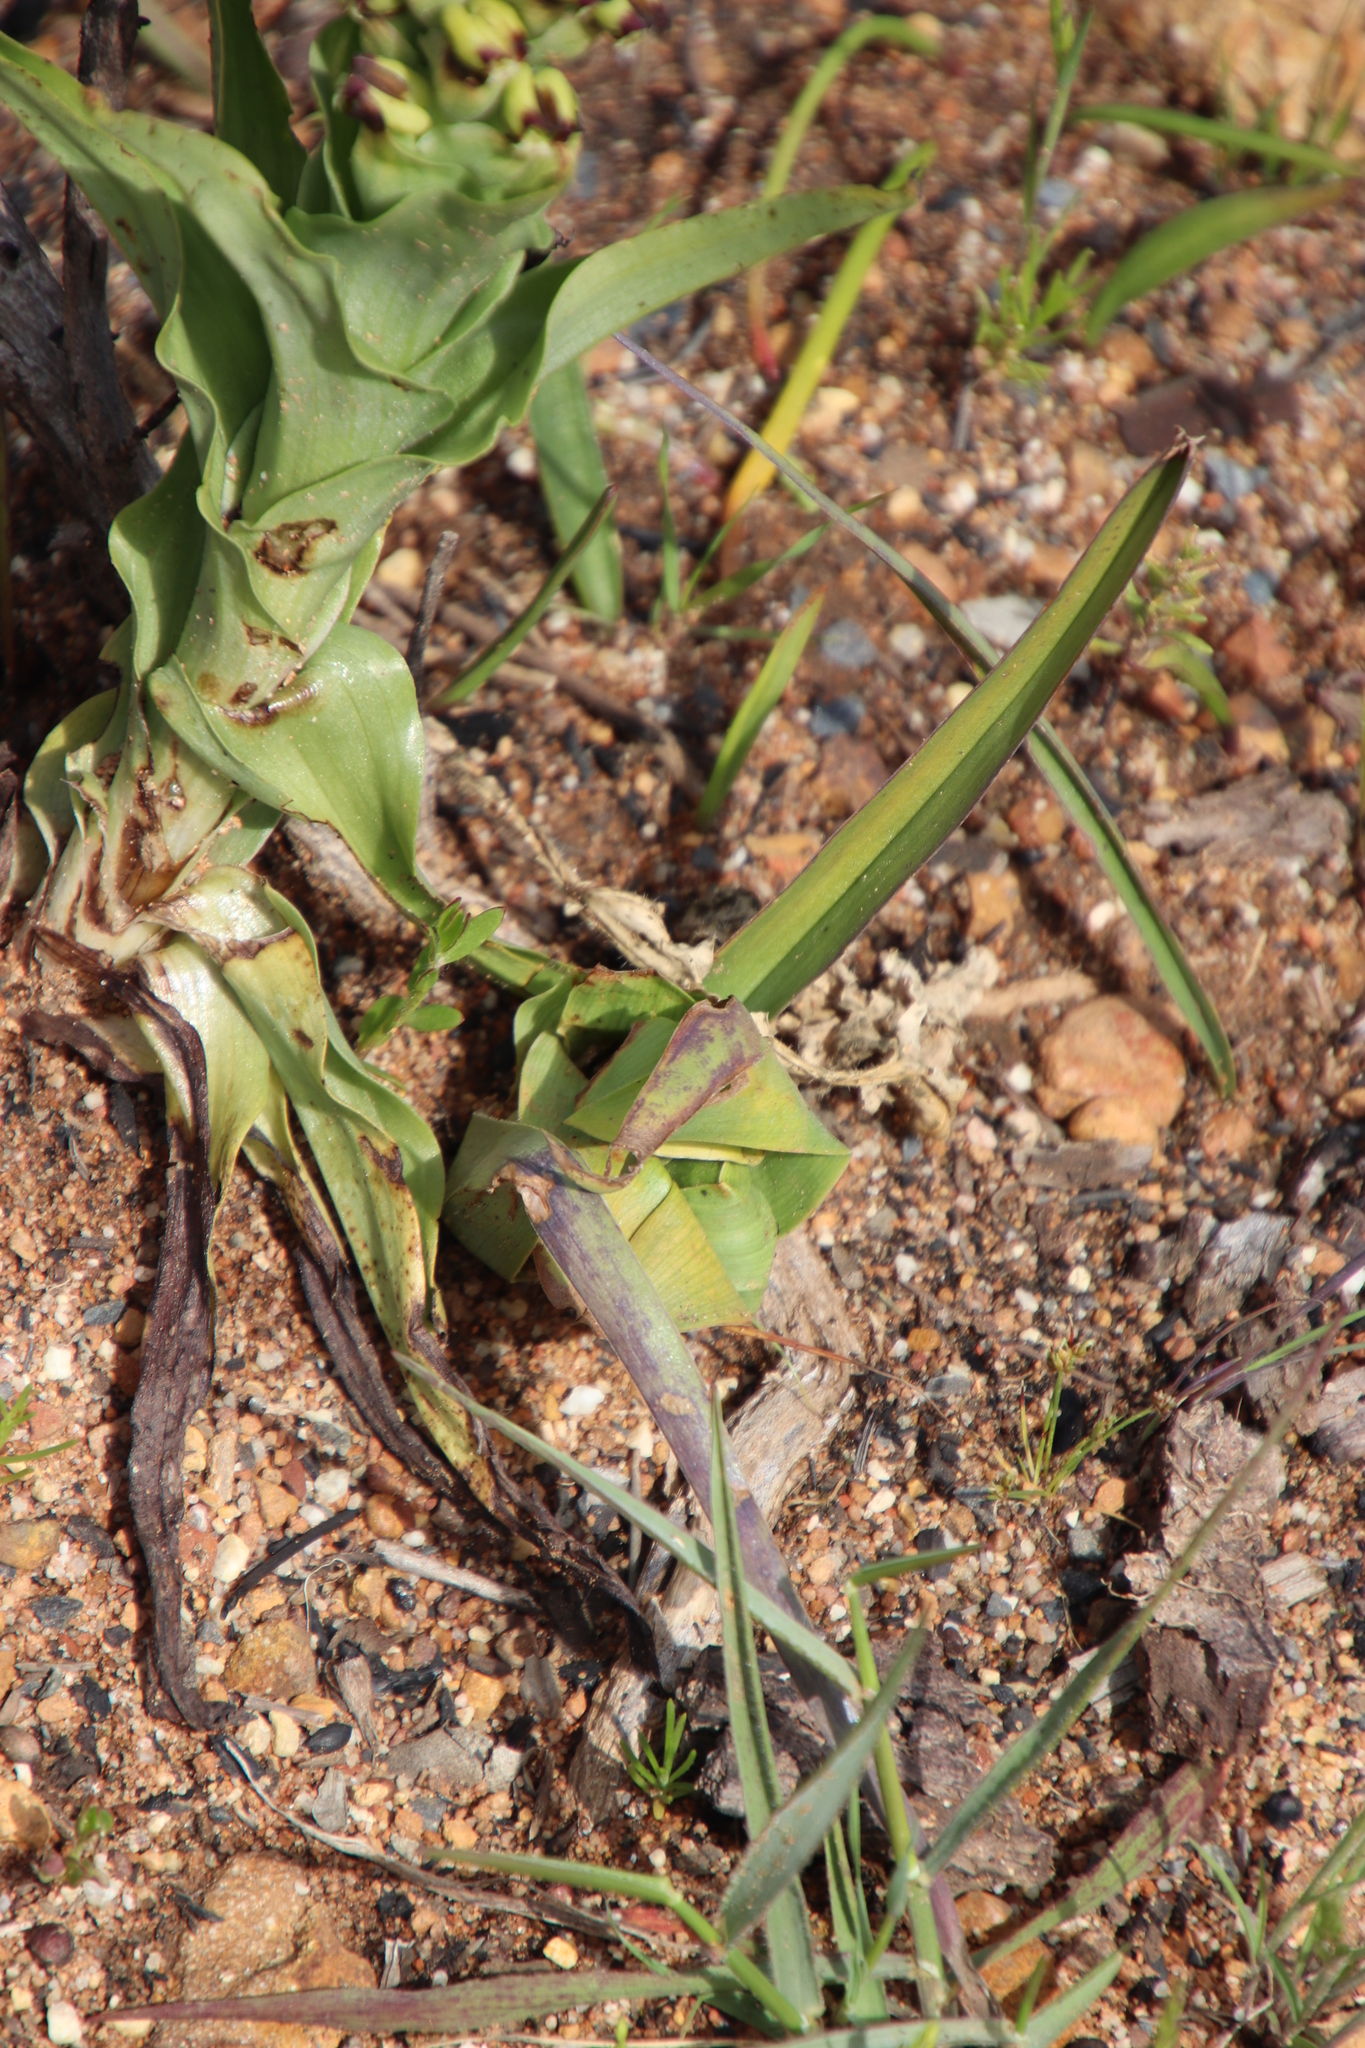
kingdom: Plantae
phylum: Tracheophyta
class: Liliopsida
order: Liliales
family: Colchicaceae
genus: Colchicum
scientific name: Colchicum eucomoides
